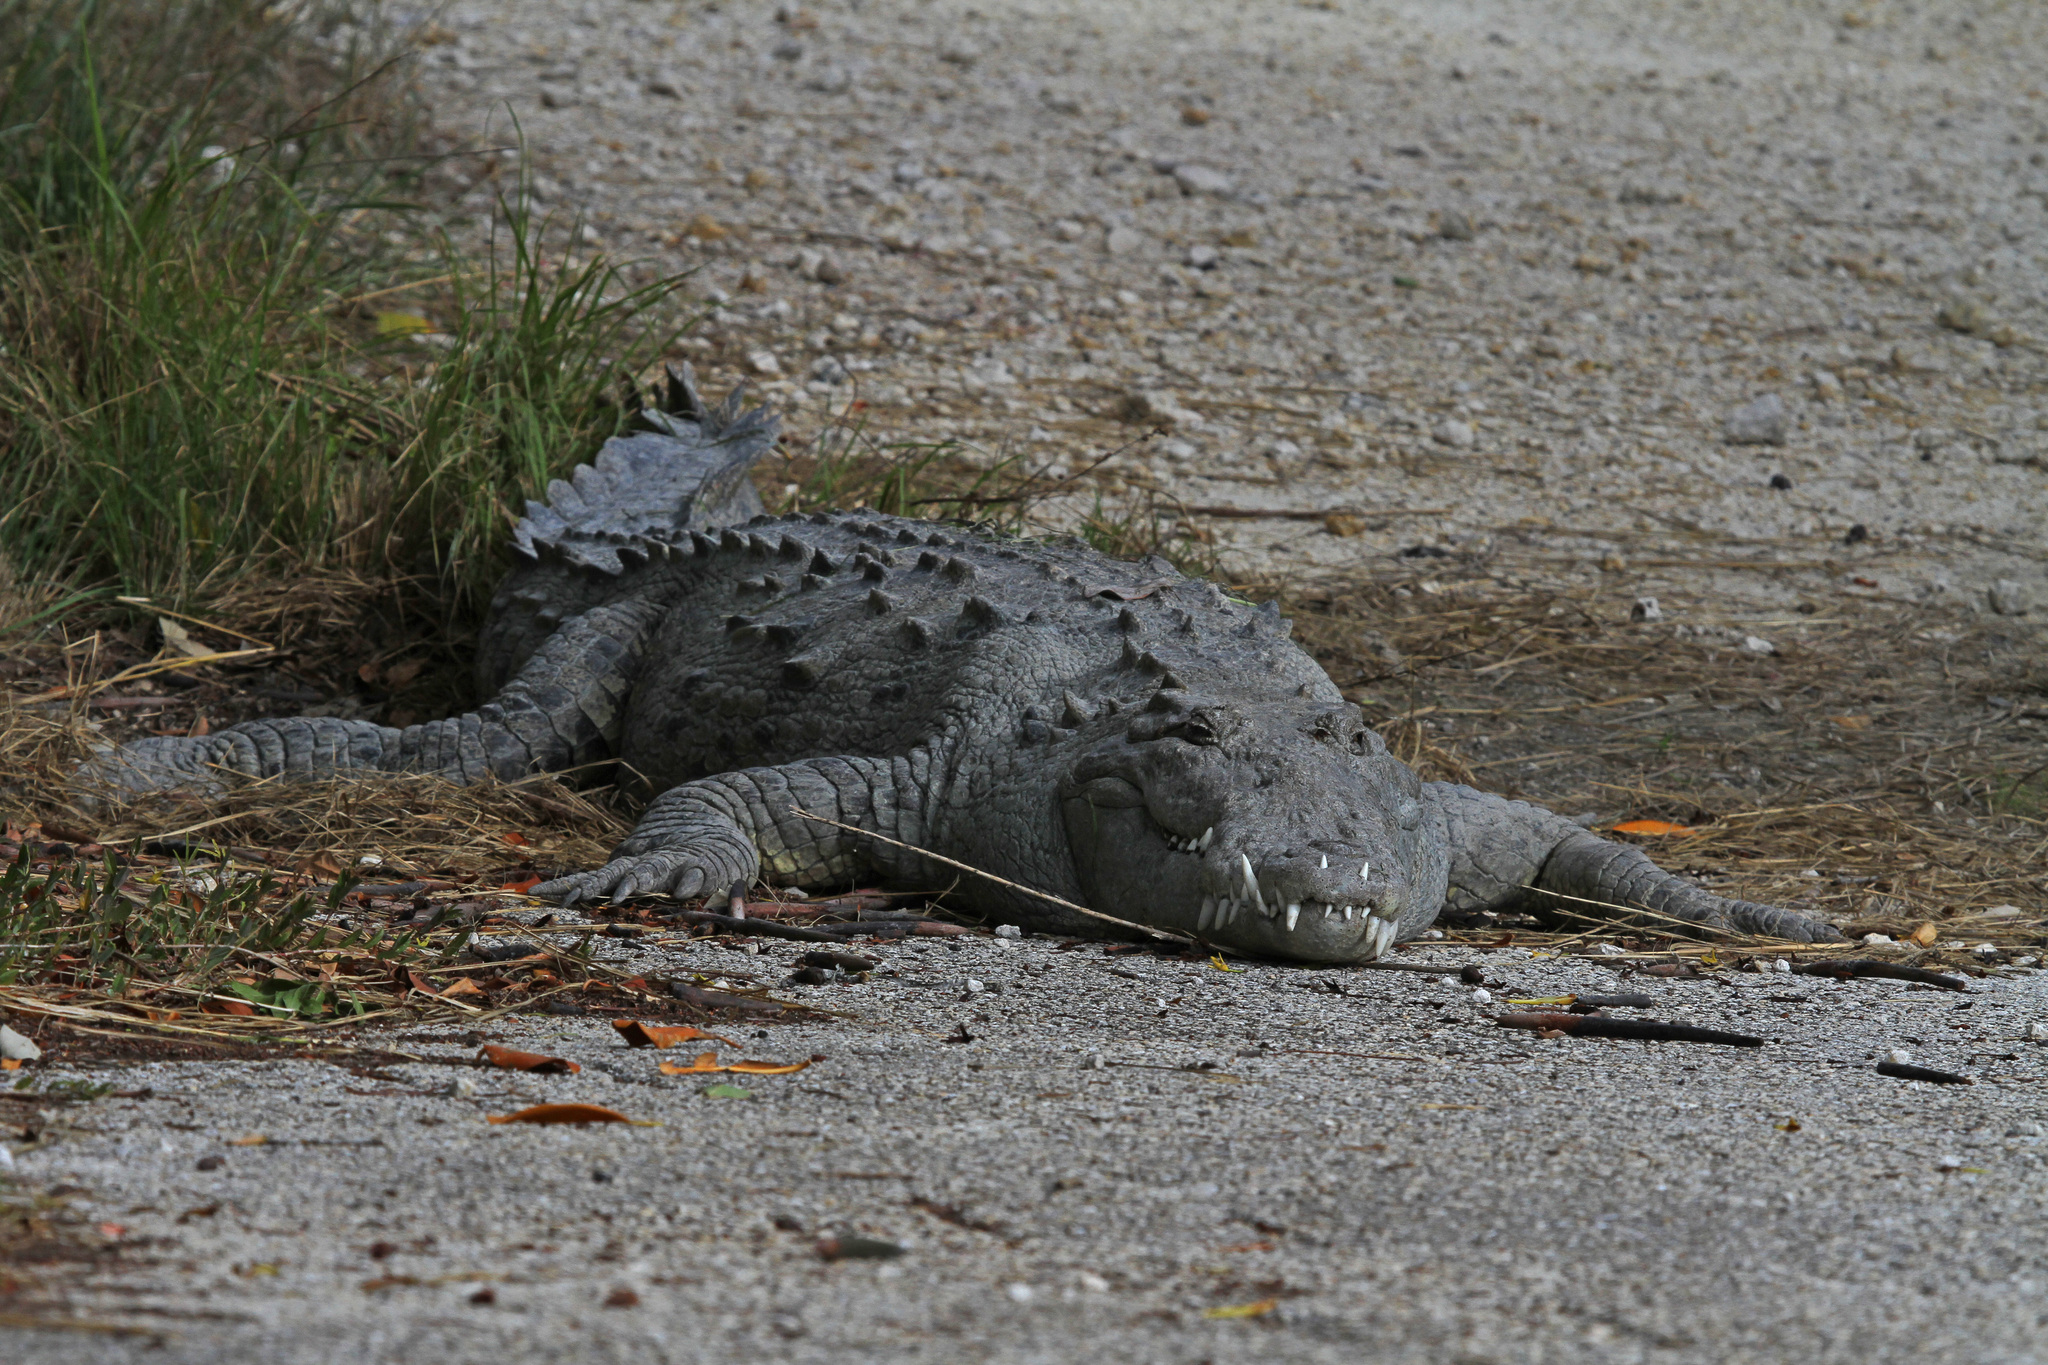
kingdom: Animalia
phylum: Chordata
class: Crocodylia
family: Crocodylidae
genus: Crocodylus
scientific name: Crocodylus acutus
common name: American crocodile
